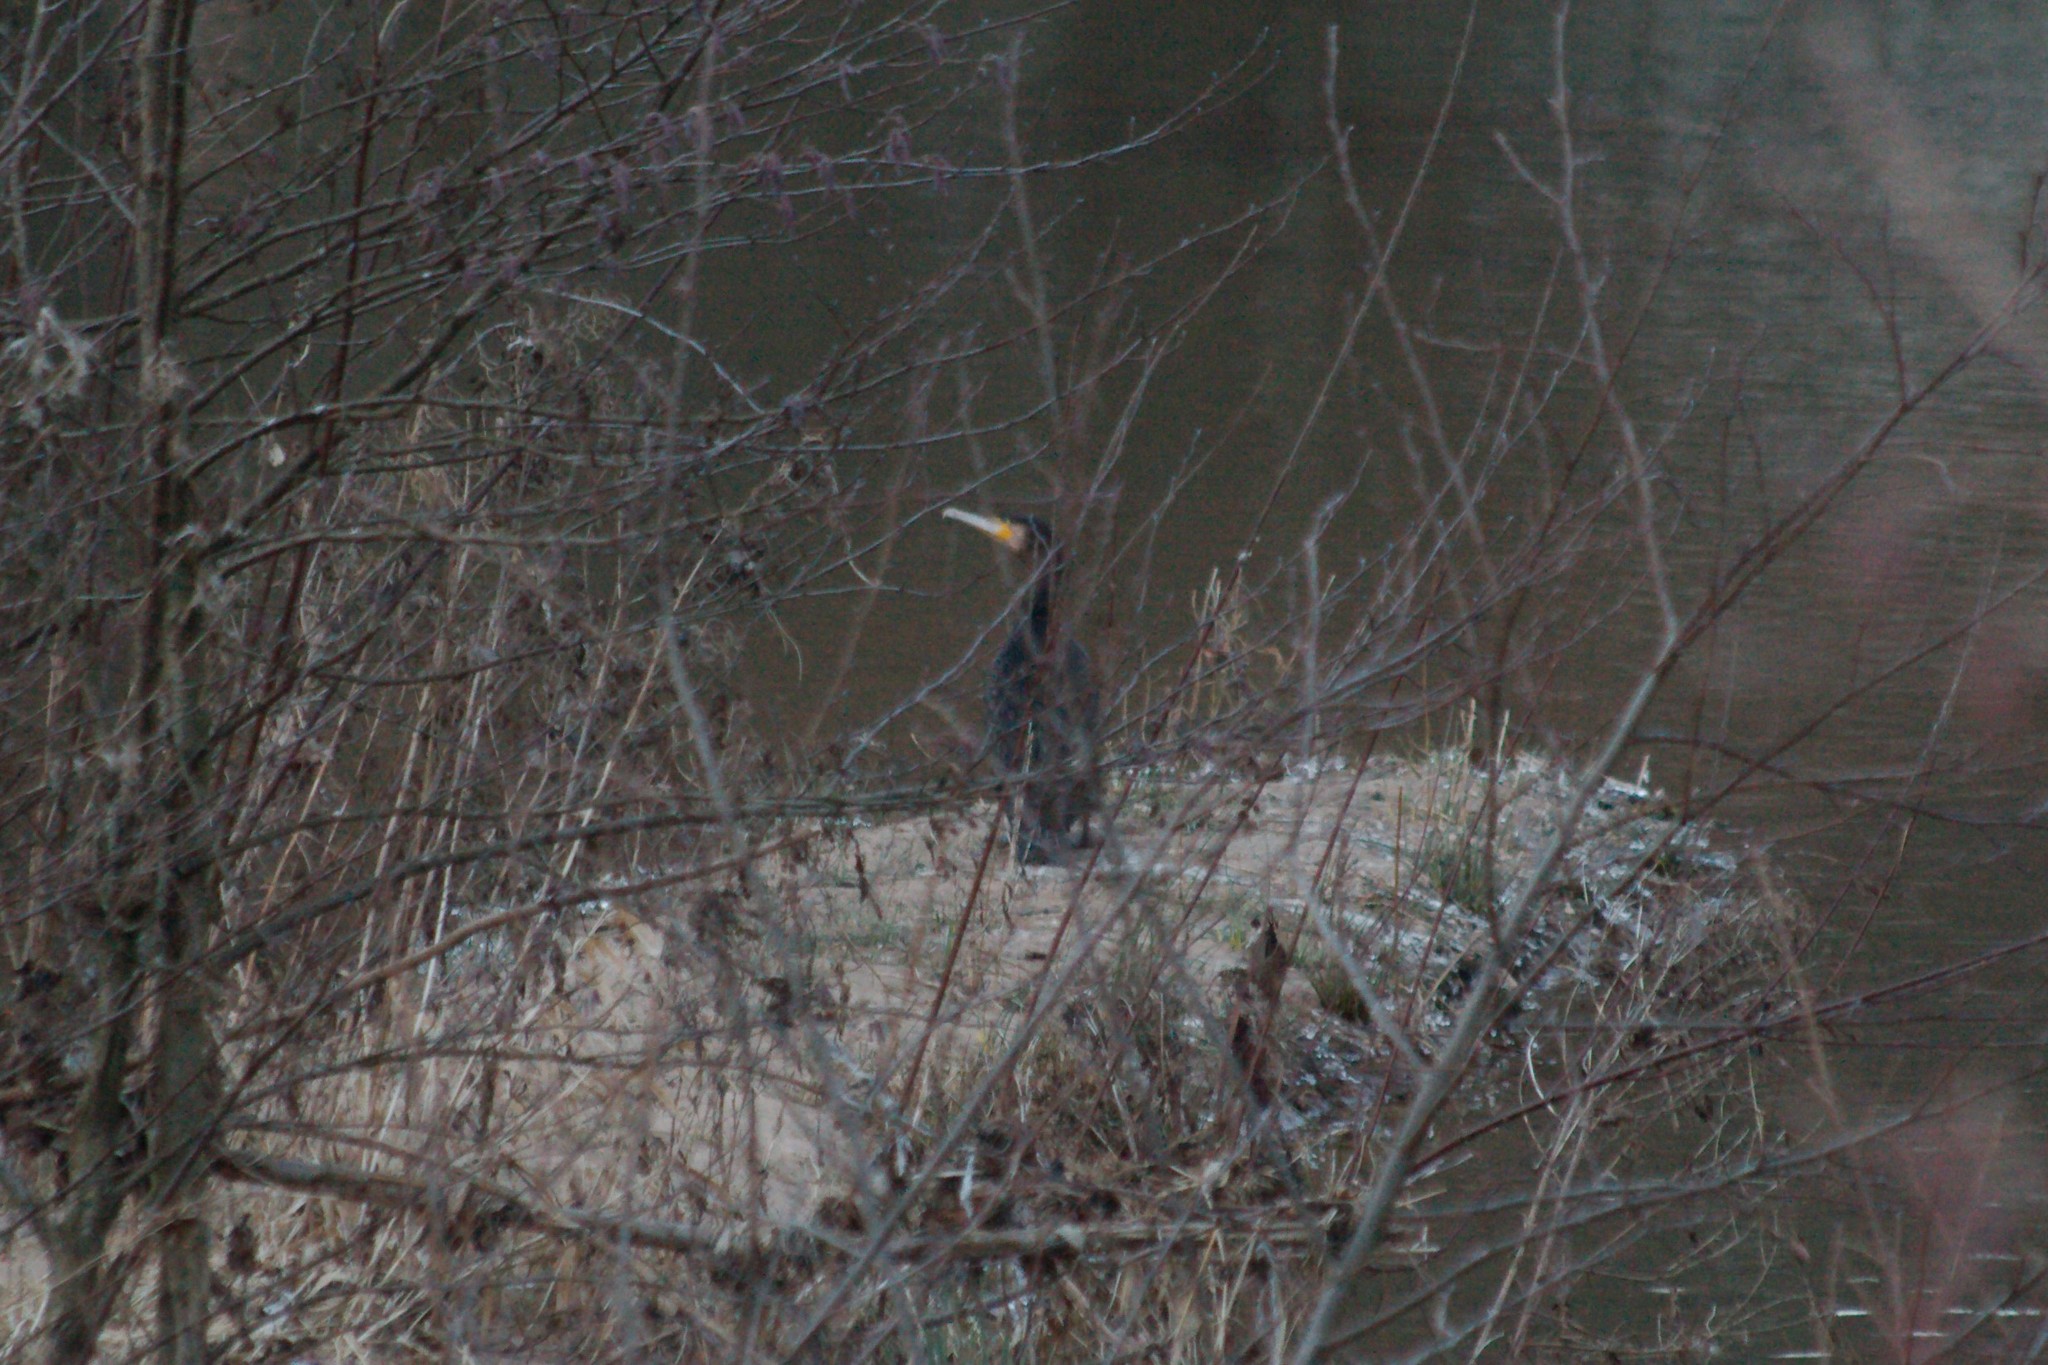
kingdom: Animalia
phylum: Chordata
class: Aves
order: Suliformes
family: Phalacrocoracidae
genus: Phalacrocorax
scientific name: Phalacrocorax carbo
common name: Great cormorant
